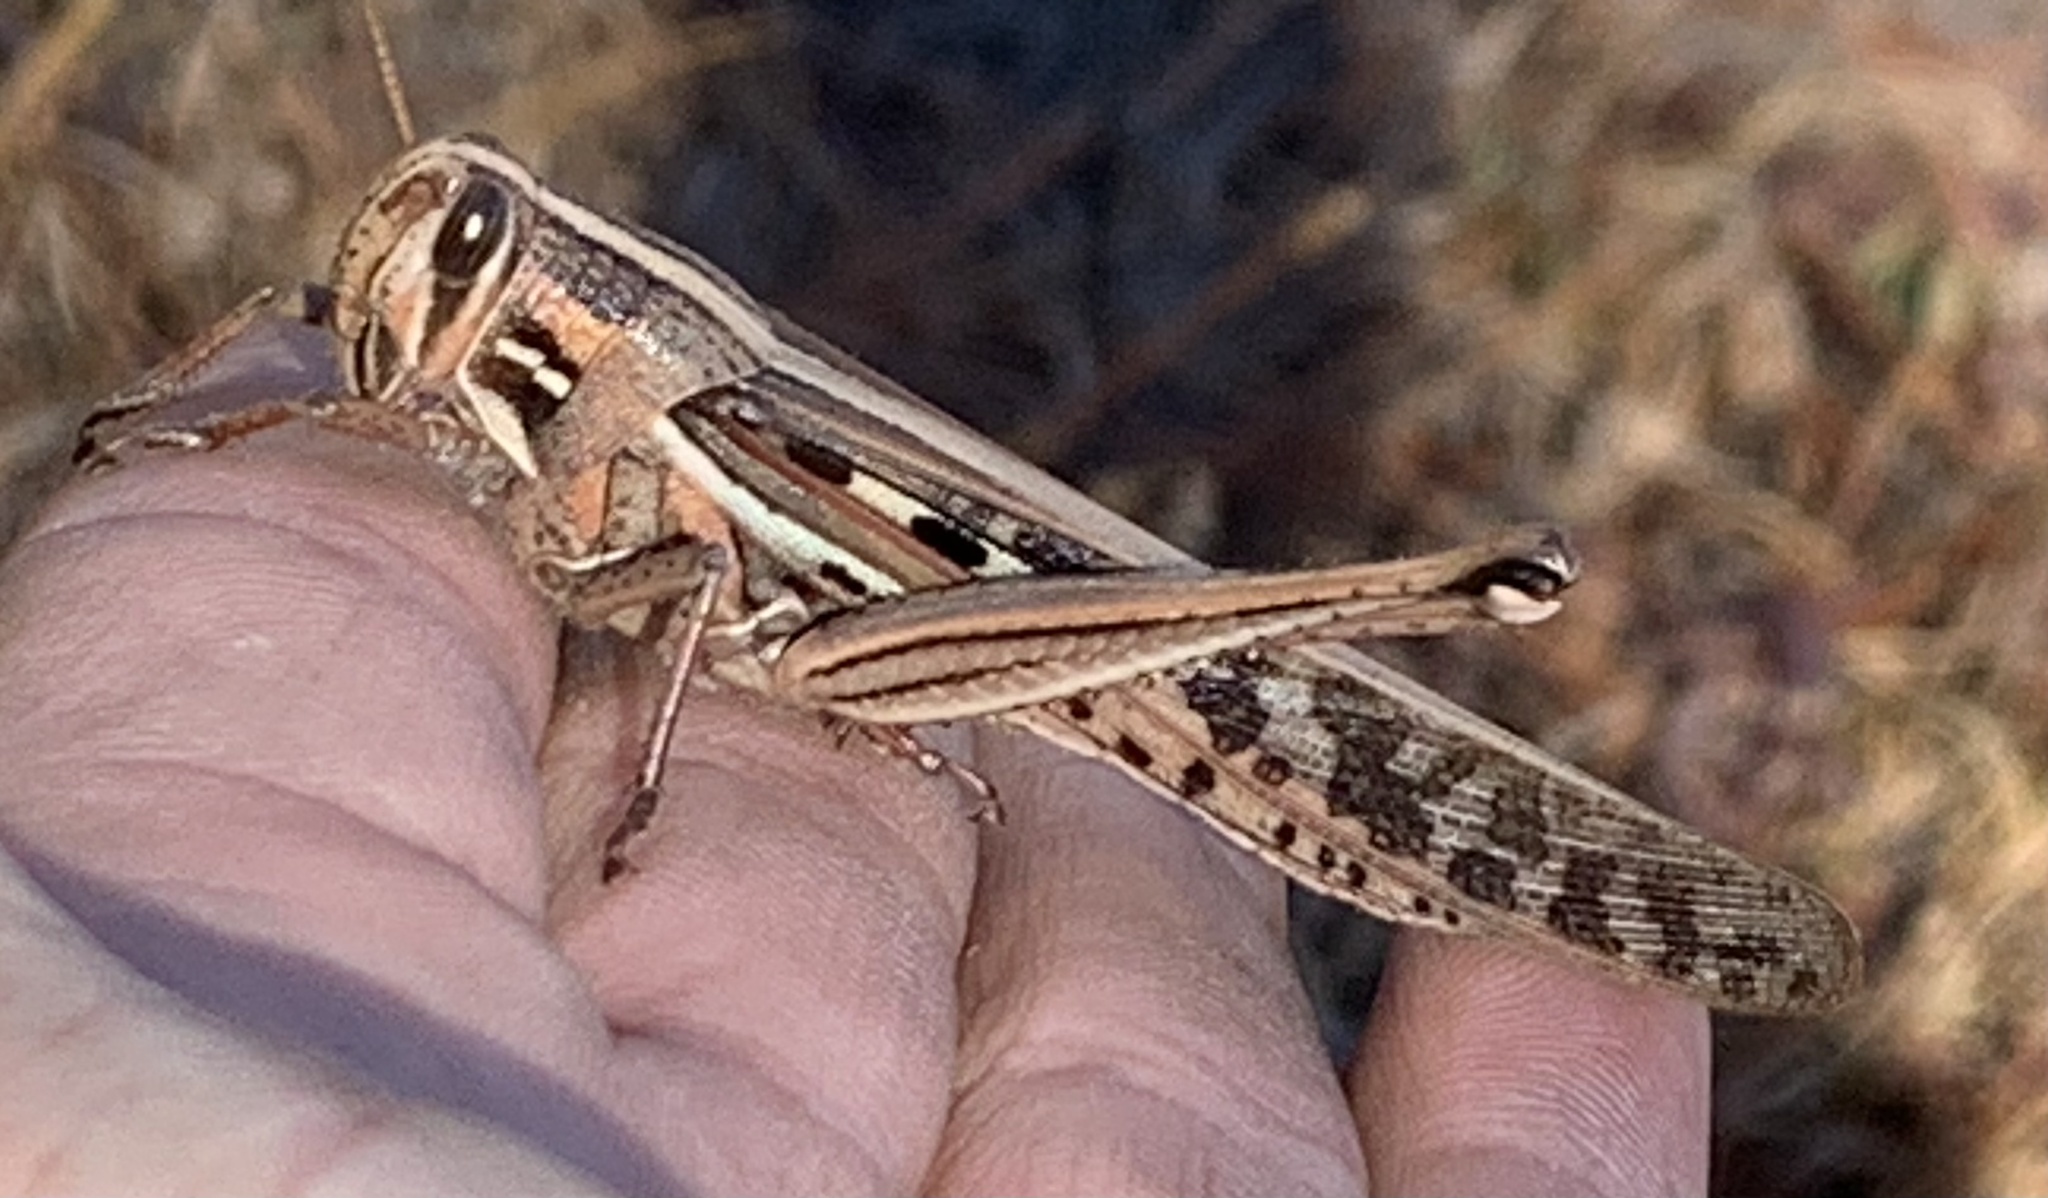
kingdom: Animalia
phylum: Arthropoda
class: Insecta
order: Orthoptera
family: Acrididae
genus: Schistocerca
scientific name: Schistocerca americana
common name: American bird locust
